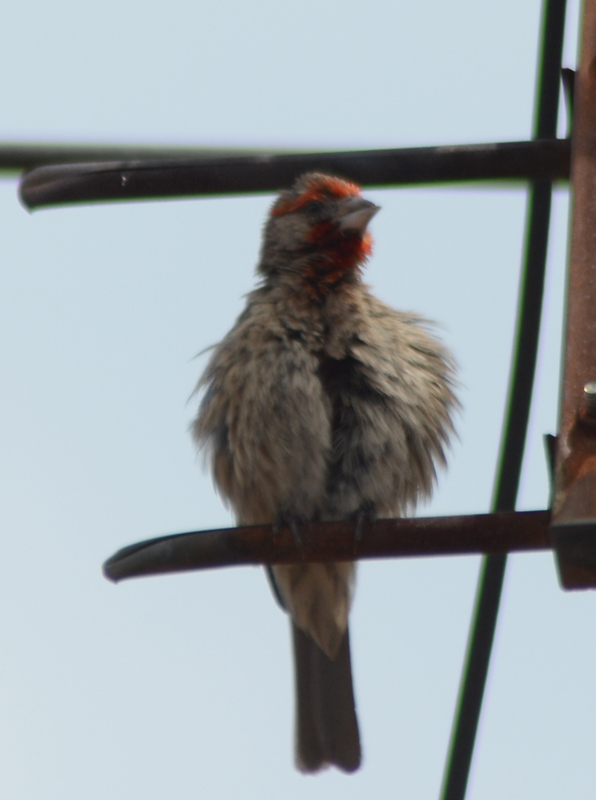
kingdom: Animalia
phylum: Chordata
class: Aves
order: Passeriformes
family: Fringillidae
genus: Haemorhous
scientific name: Haemorhous mexicanus
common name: House finch
